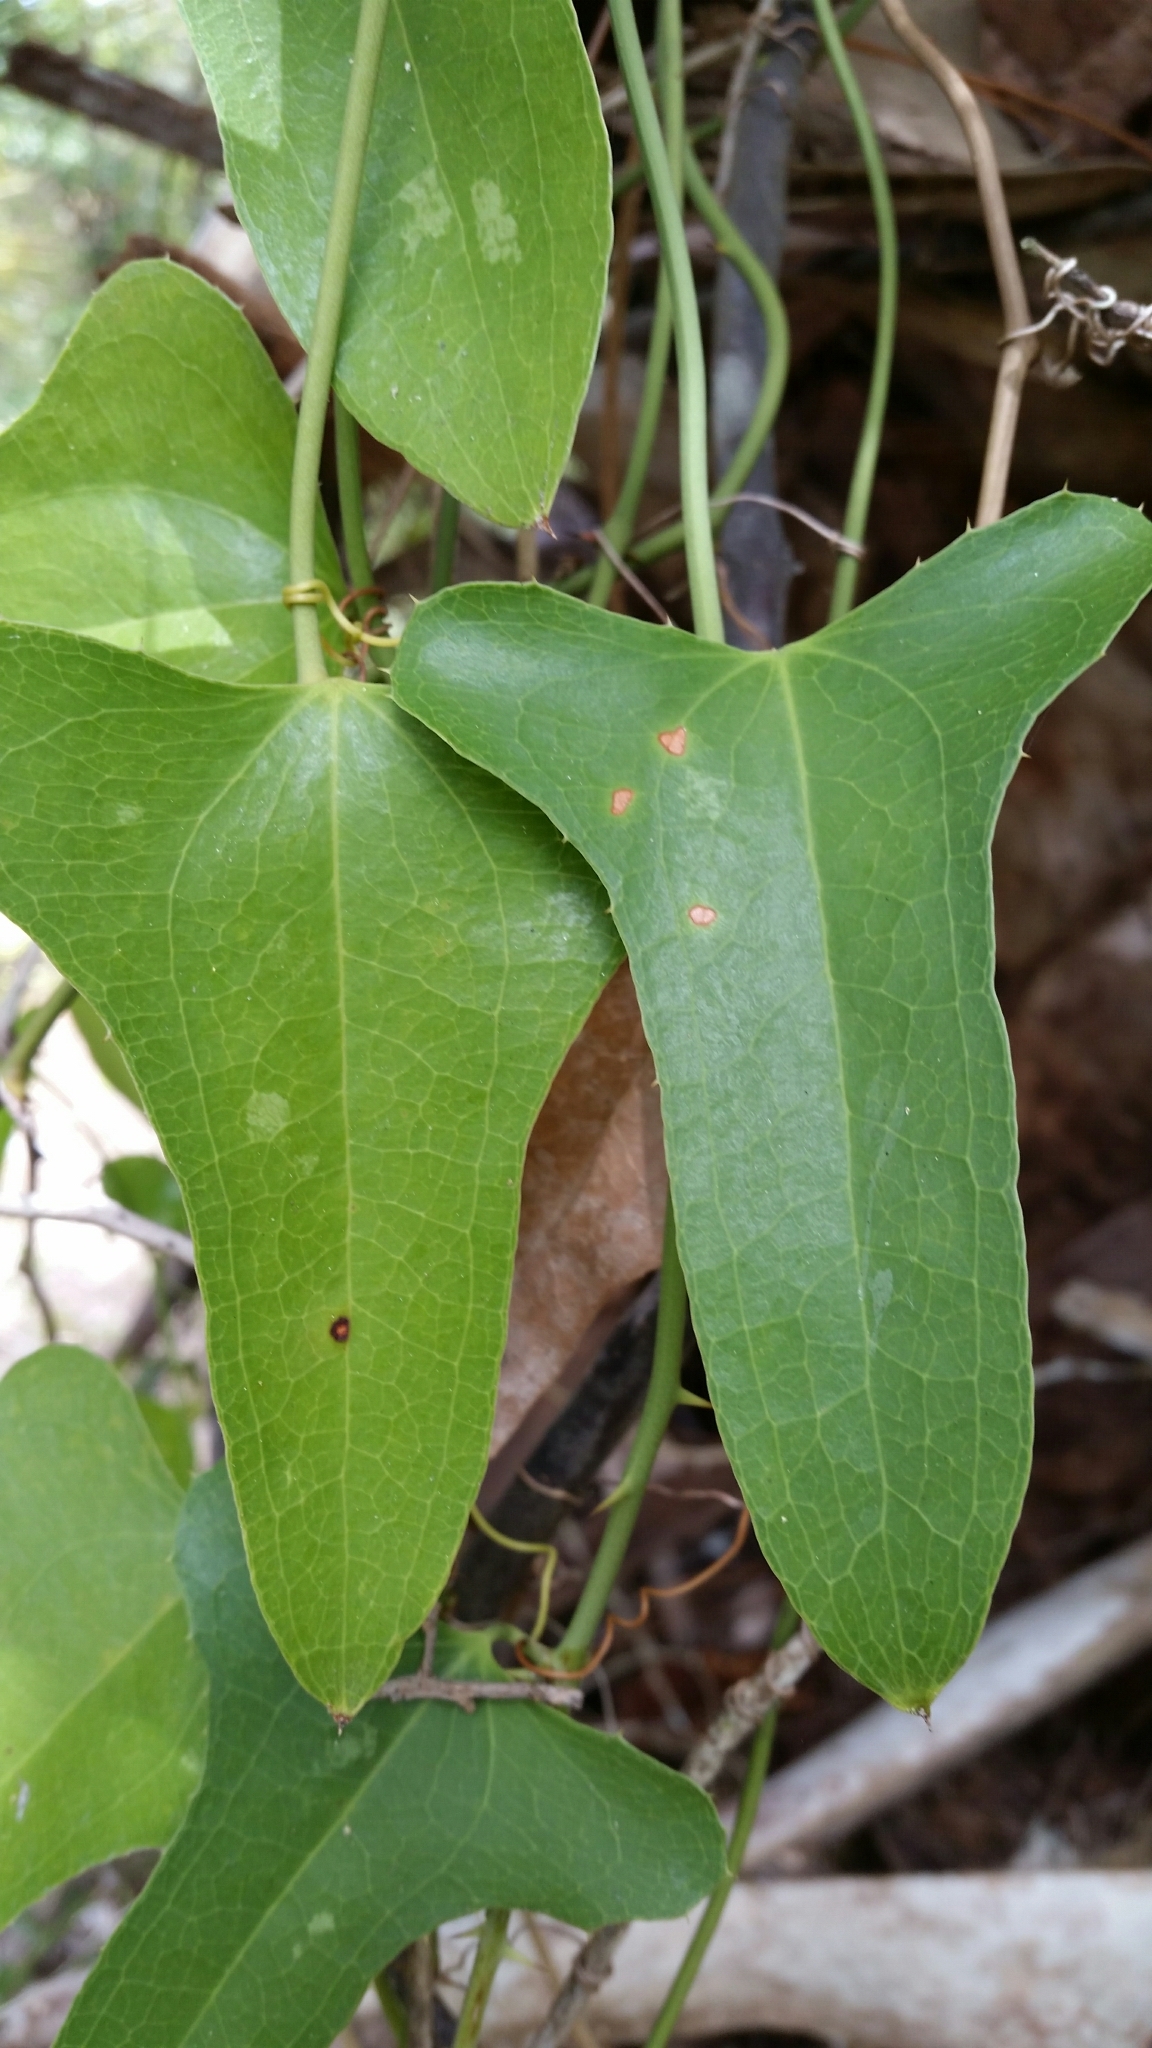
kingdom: Plantae
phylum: Tracheophyta
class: Liliopsida
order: Liliales
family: Smilacaceae
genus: Smilax
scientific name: Smilax bona-nox
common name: Catbrier
